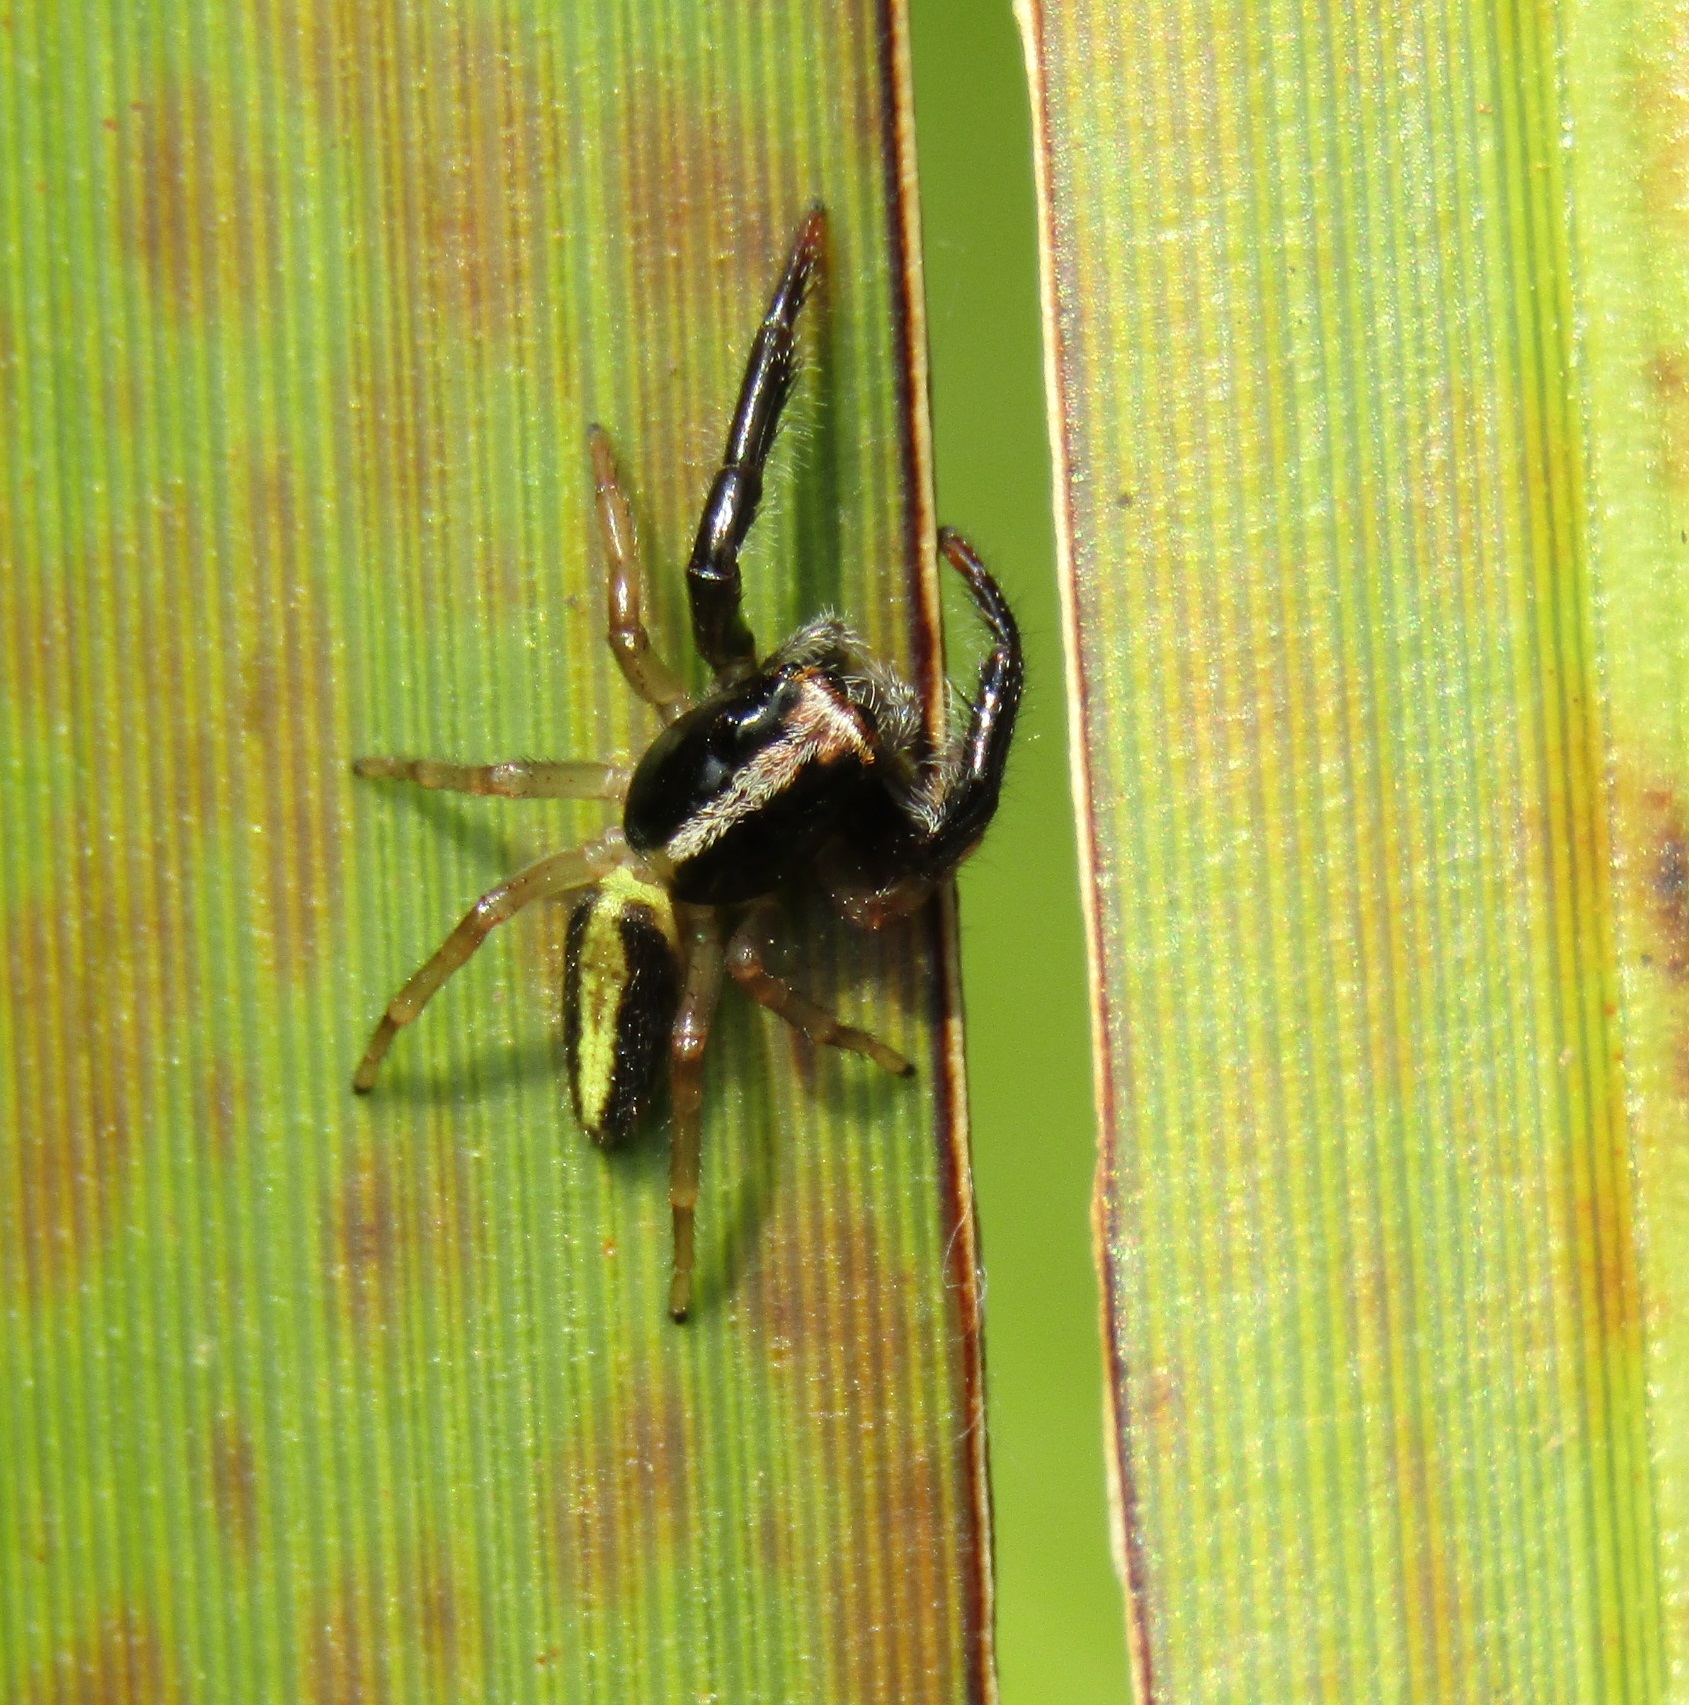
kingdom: Animalia
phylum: Arthropoda
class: Arachnida
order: Araneae
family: Salticidae
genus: Trite
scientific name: Trite planiceps
